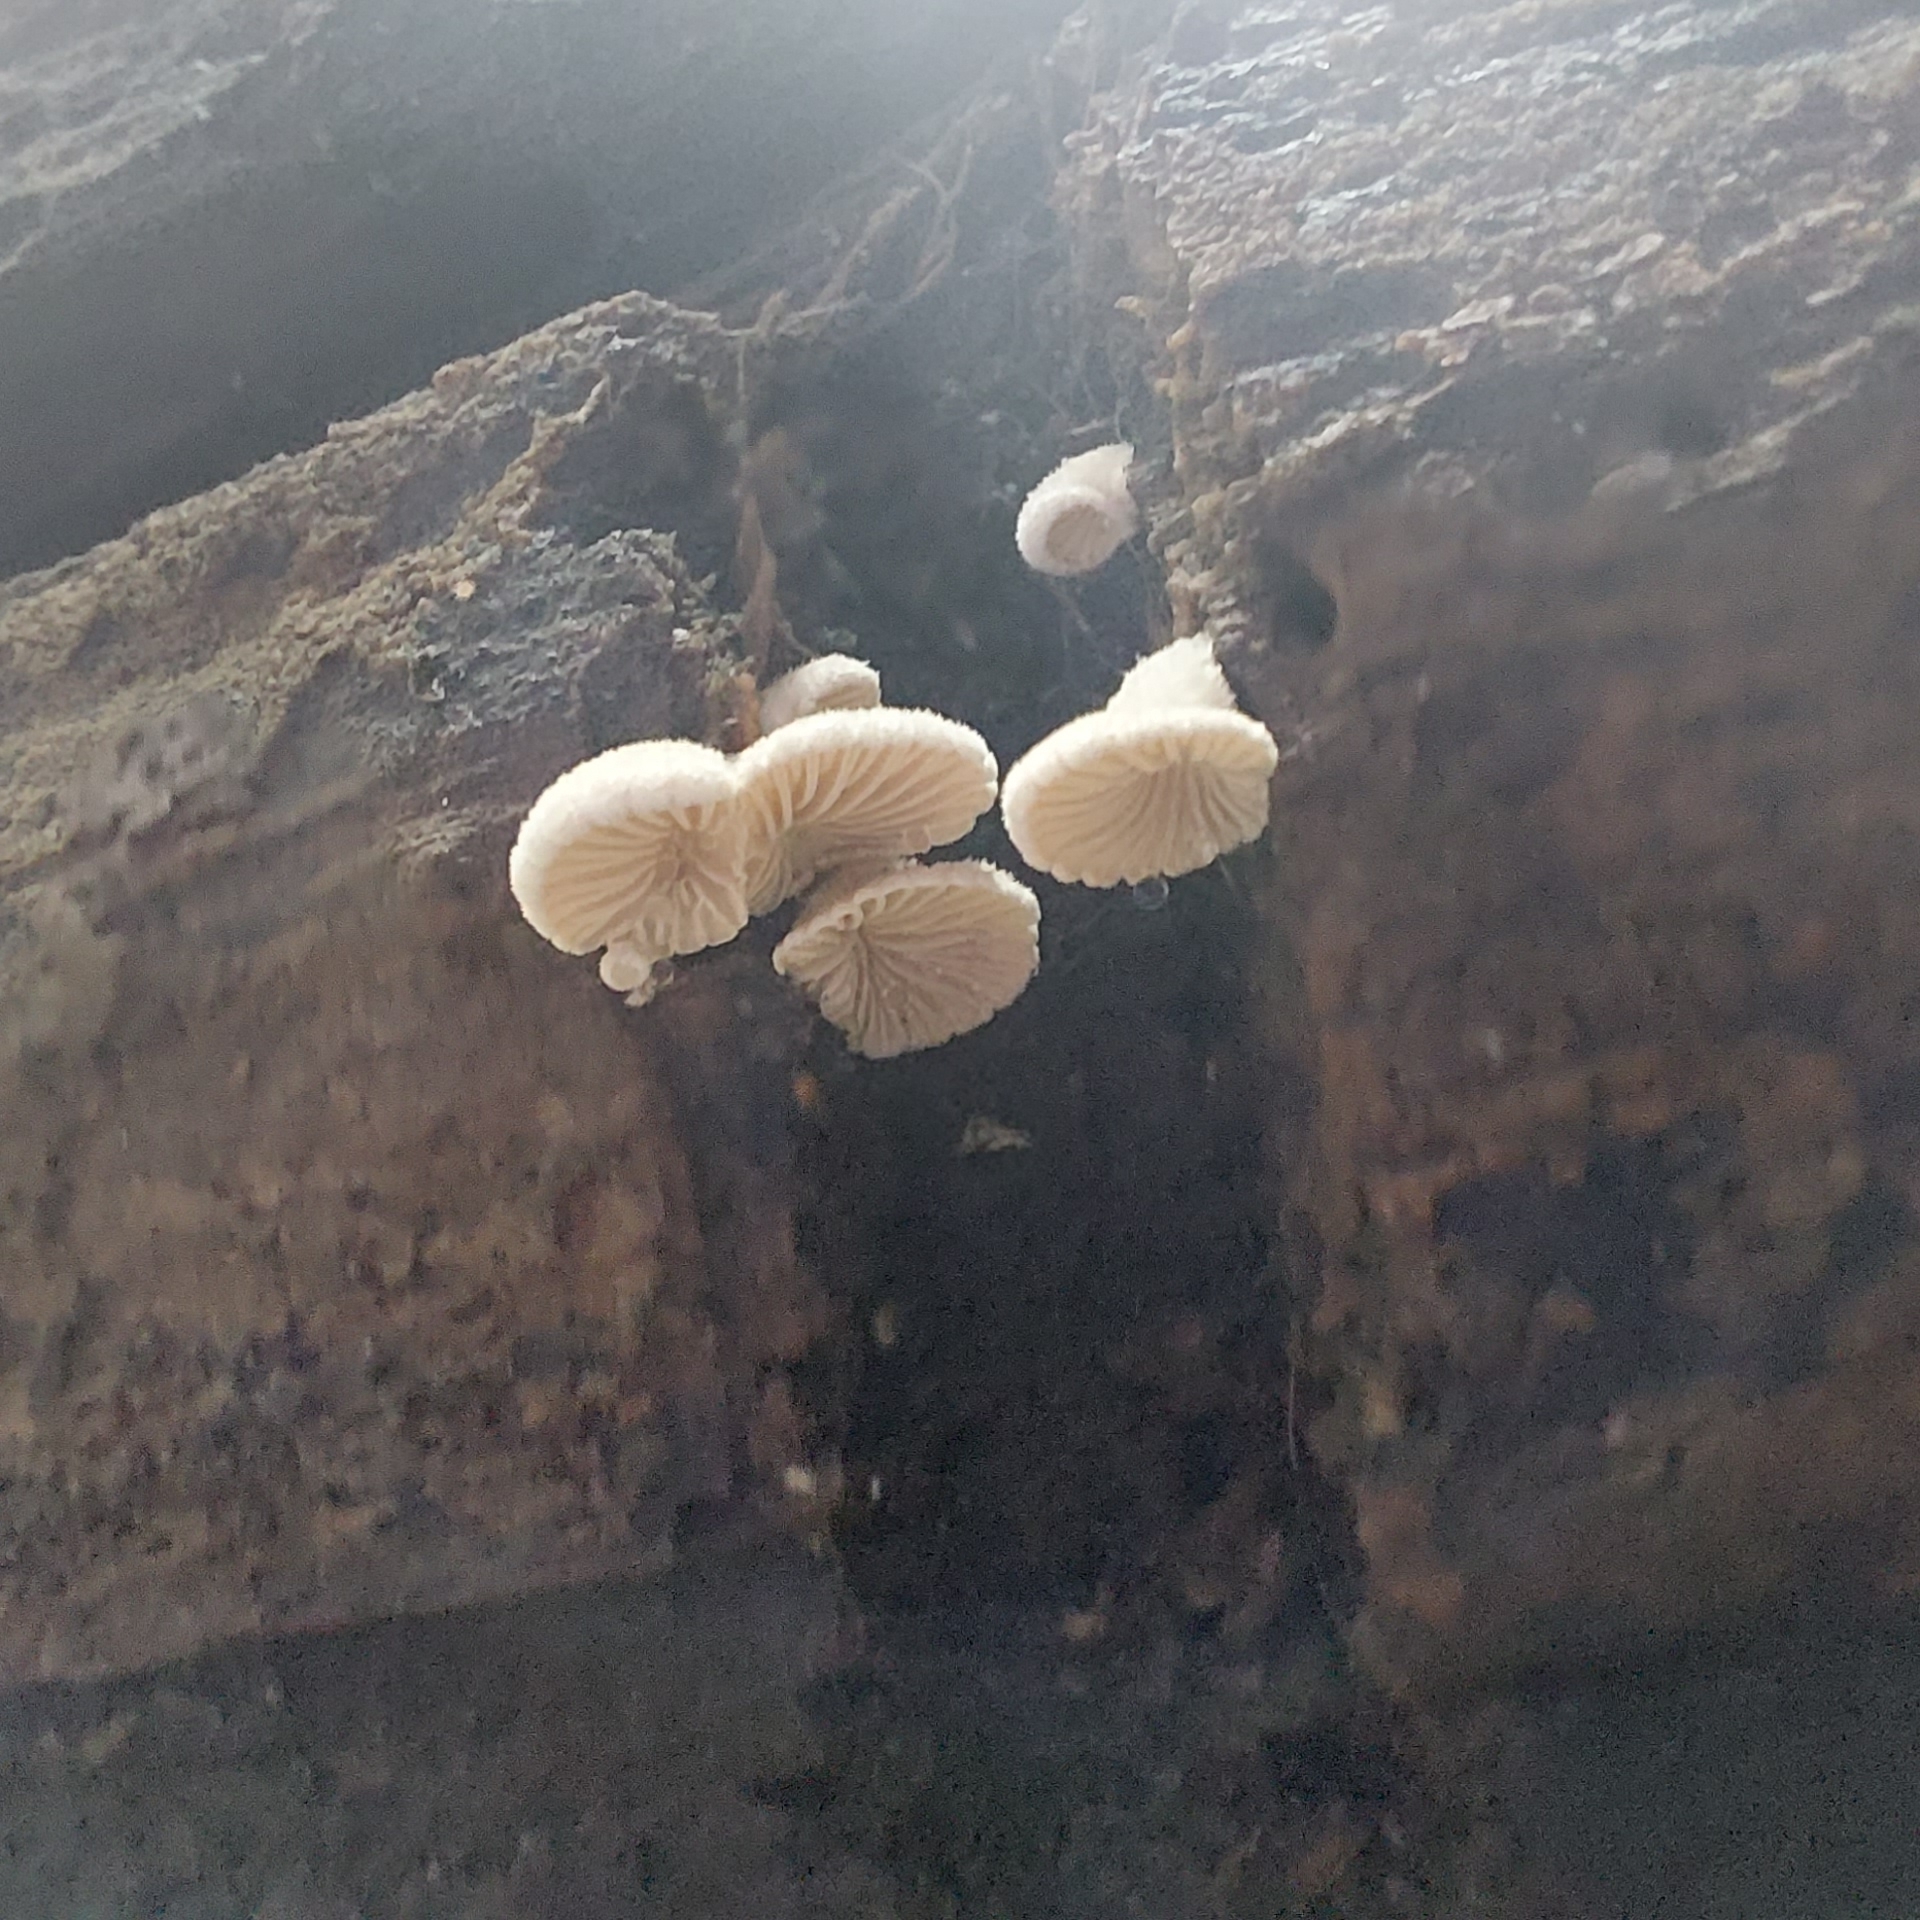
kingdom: Fungi
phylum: Basidiomycota
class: Agaricomycetes
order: Agaricales
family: Schizophyllaceae
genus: Schizophyllum
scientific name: Schizophyllum commune
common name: Common porecrust
